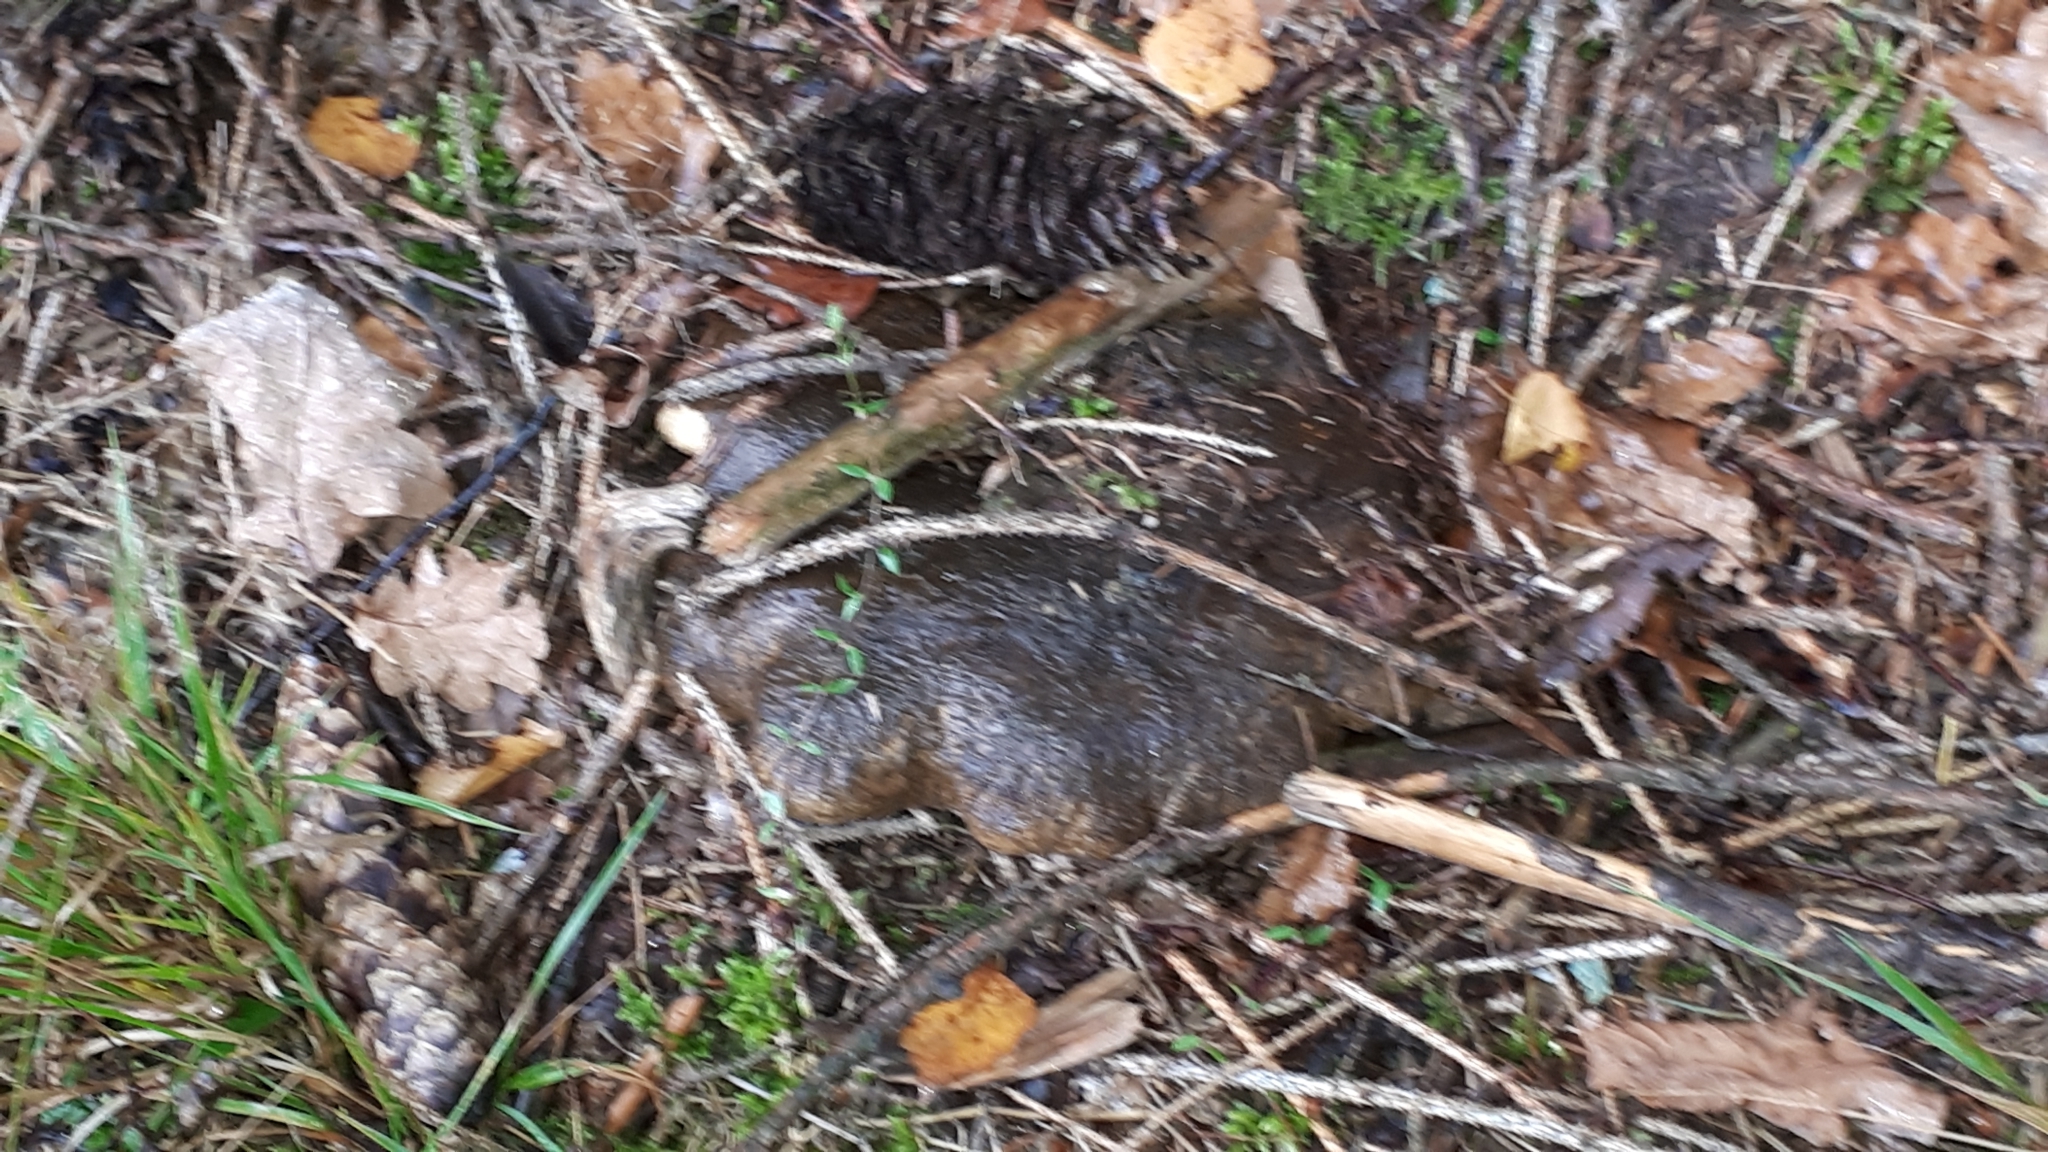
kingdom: Fungi
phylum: Basidiomycota
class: Agaricomycetes
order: Russulales
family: Russulaceae
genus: Lactarius
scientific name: Lactarius turpis
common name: Ugly milk-cap
